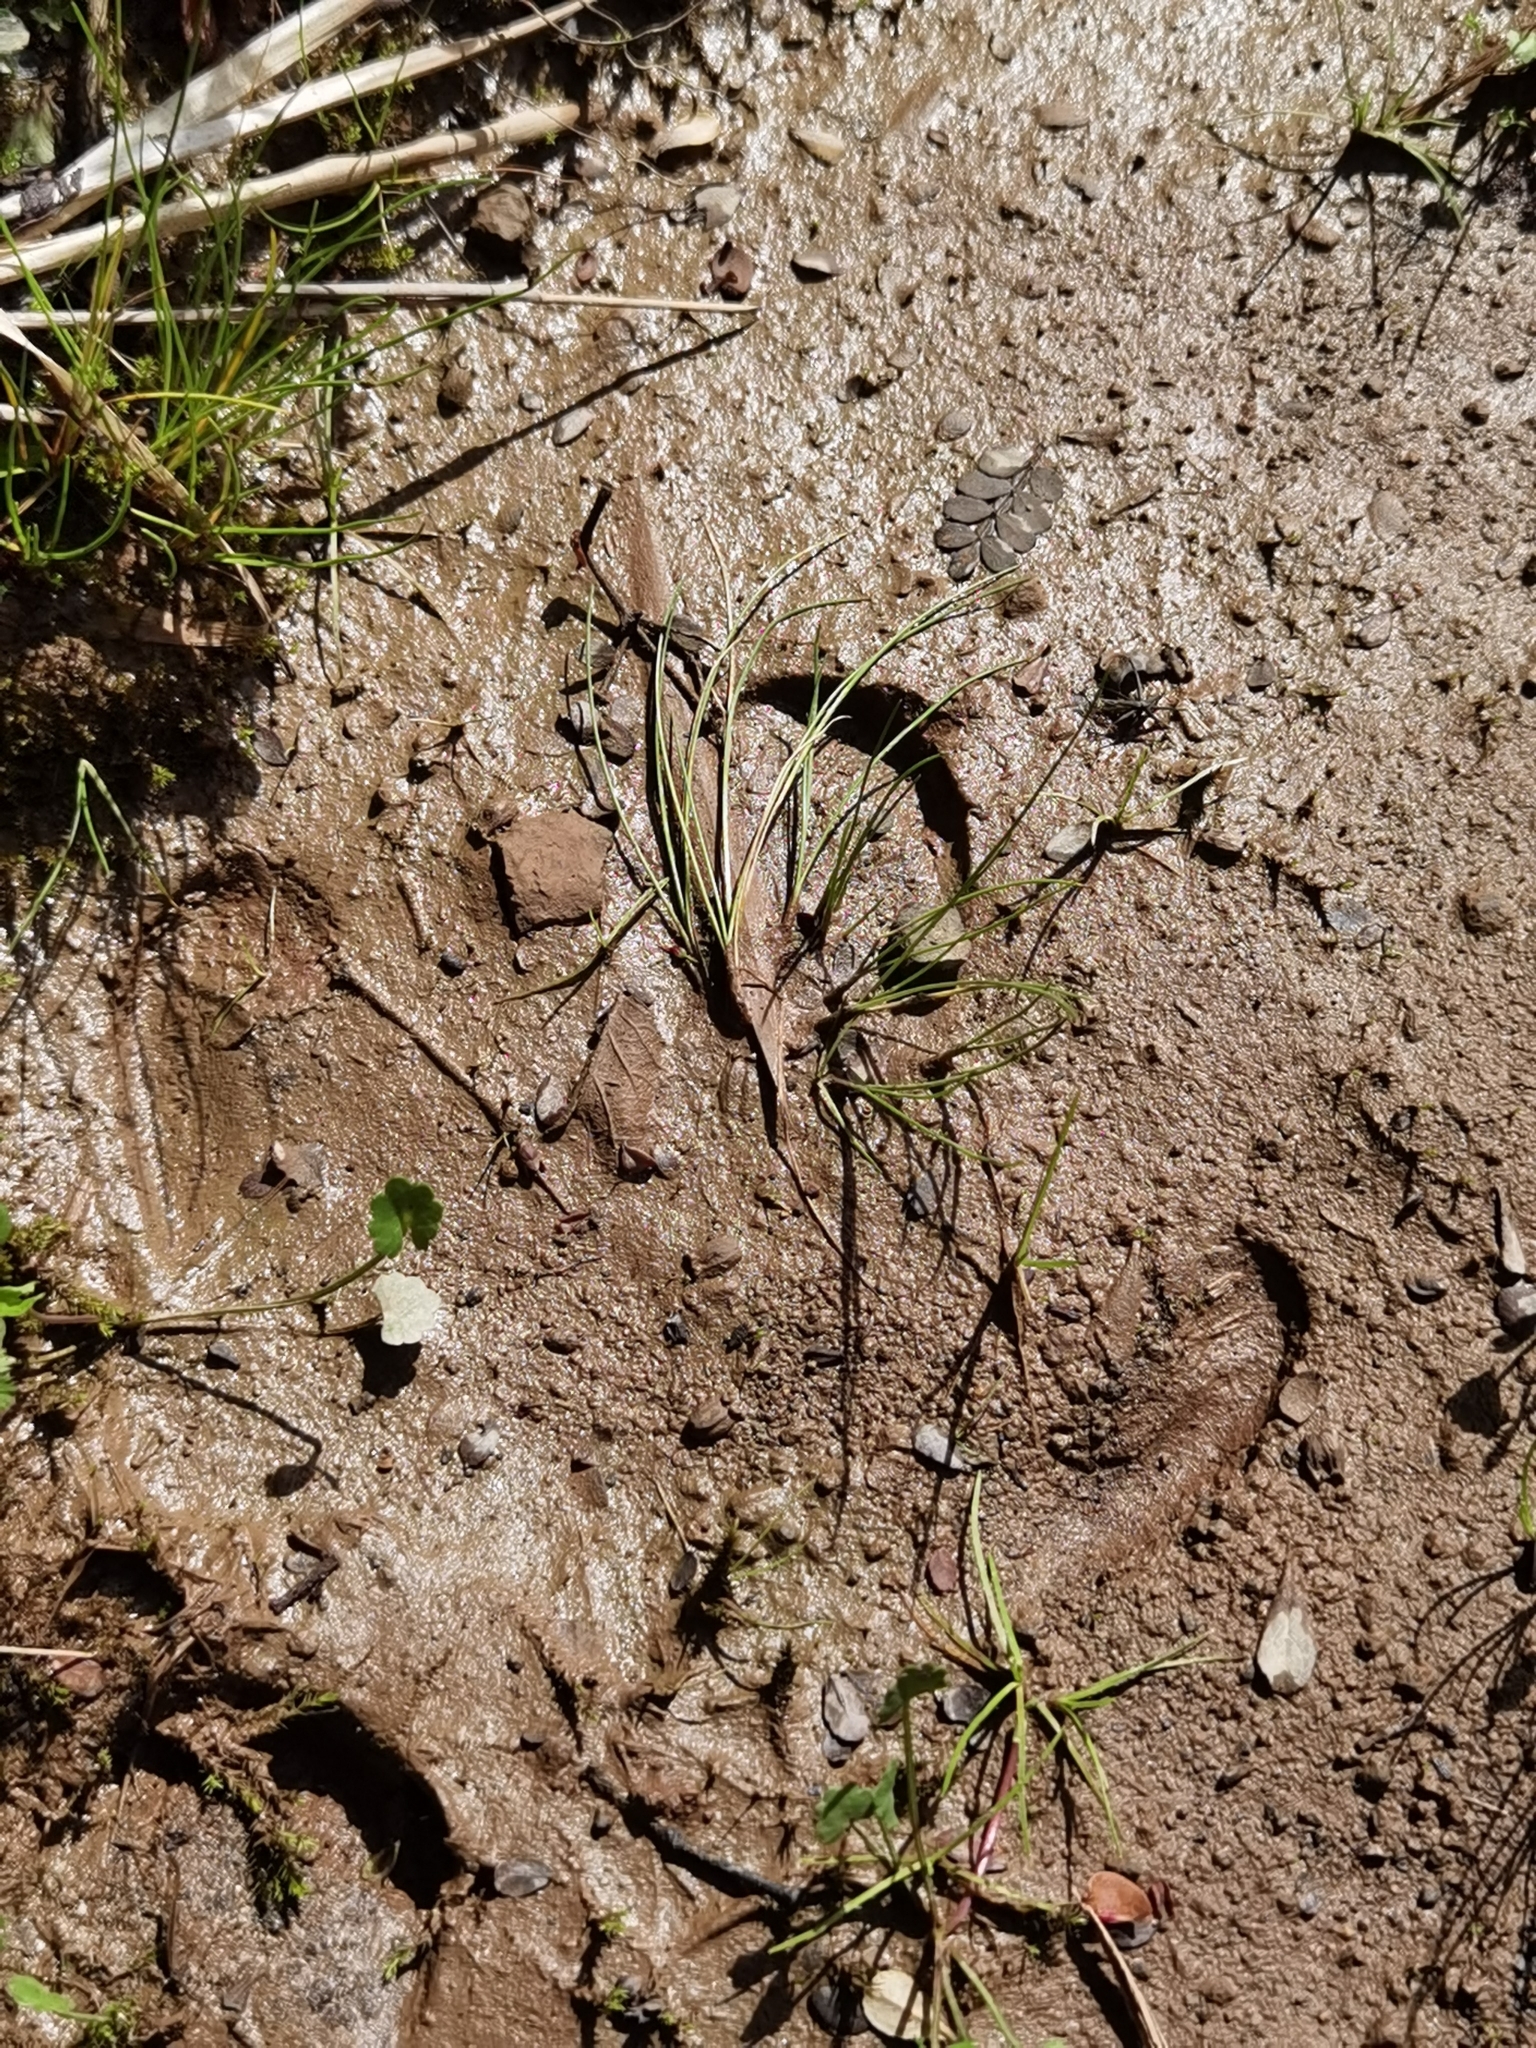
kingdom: Animalia
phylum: Chordata
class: Mammalia
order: Perissodactyla
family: Tapiridae
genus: Tapirella
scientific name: Tapirella bairdii
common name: Baird's tapir
